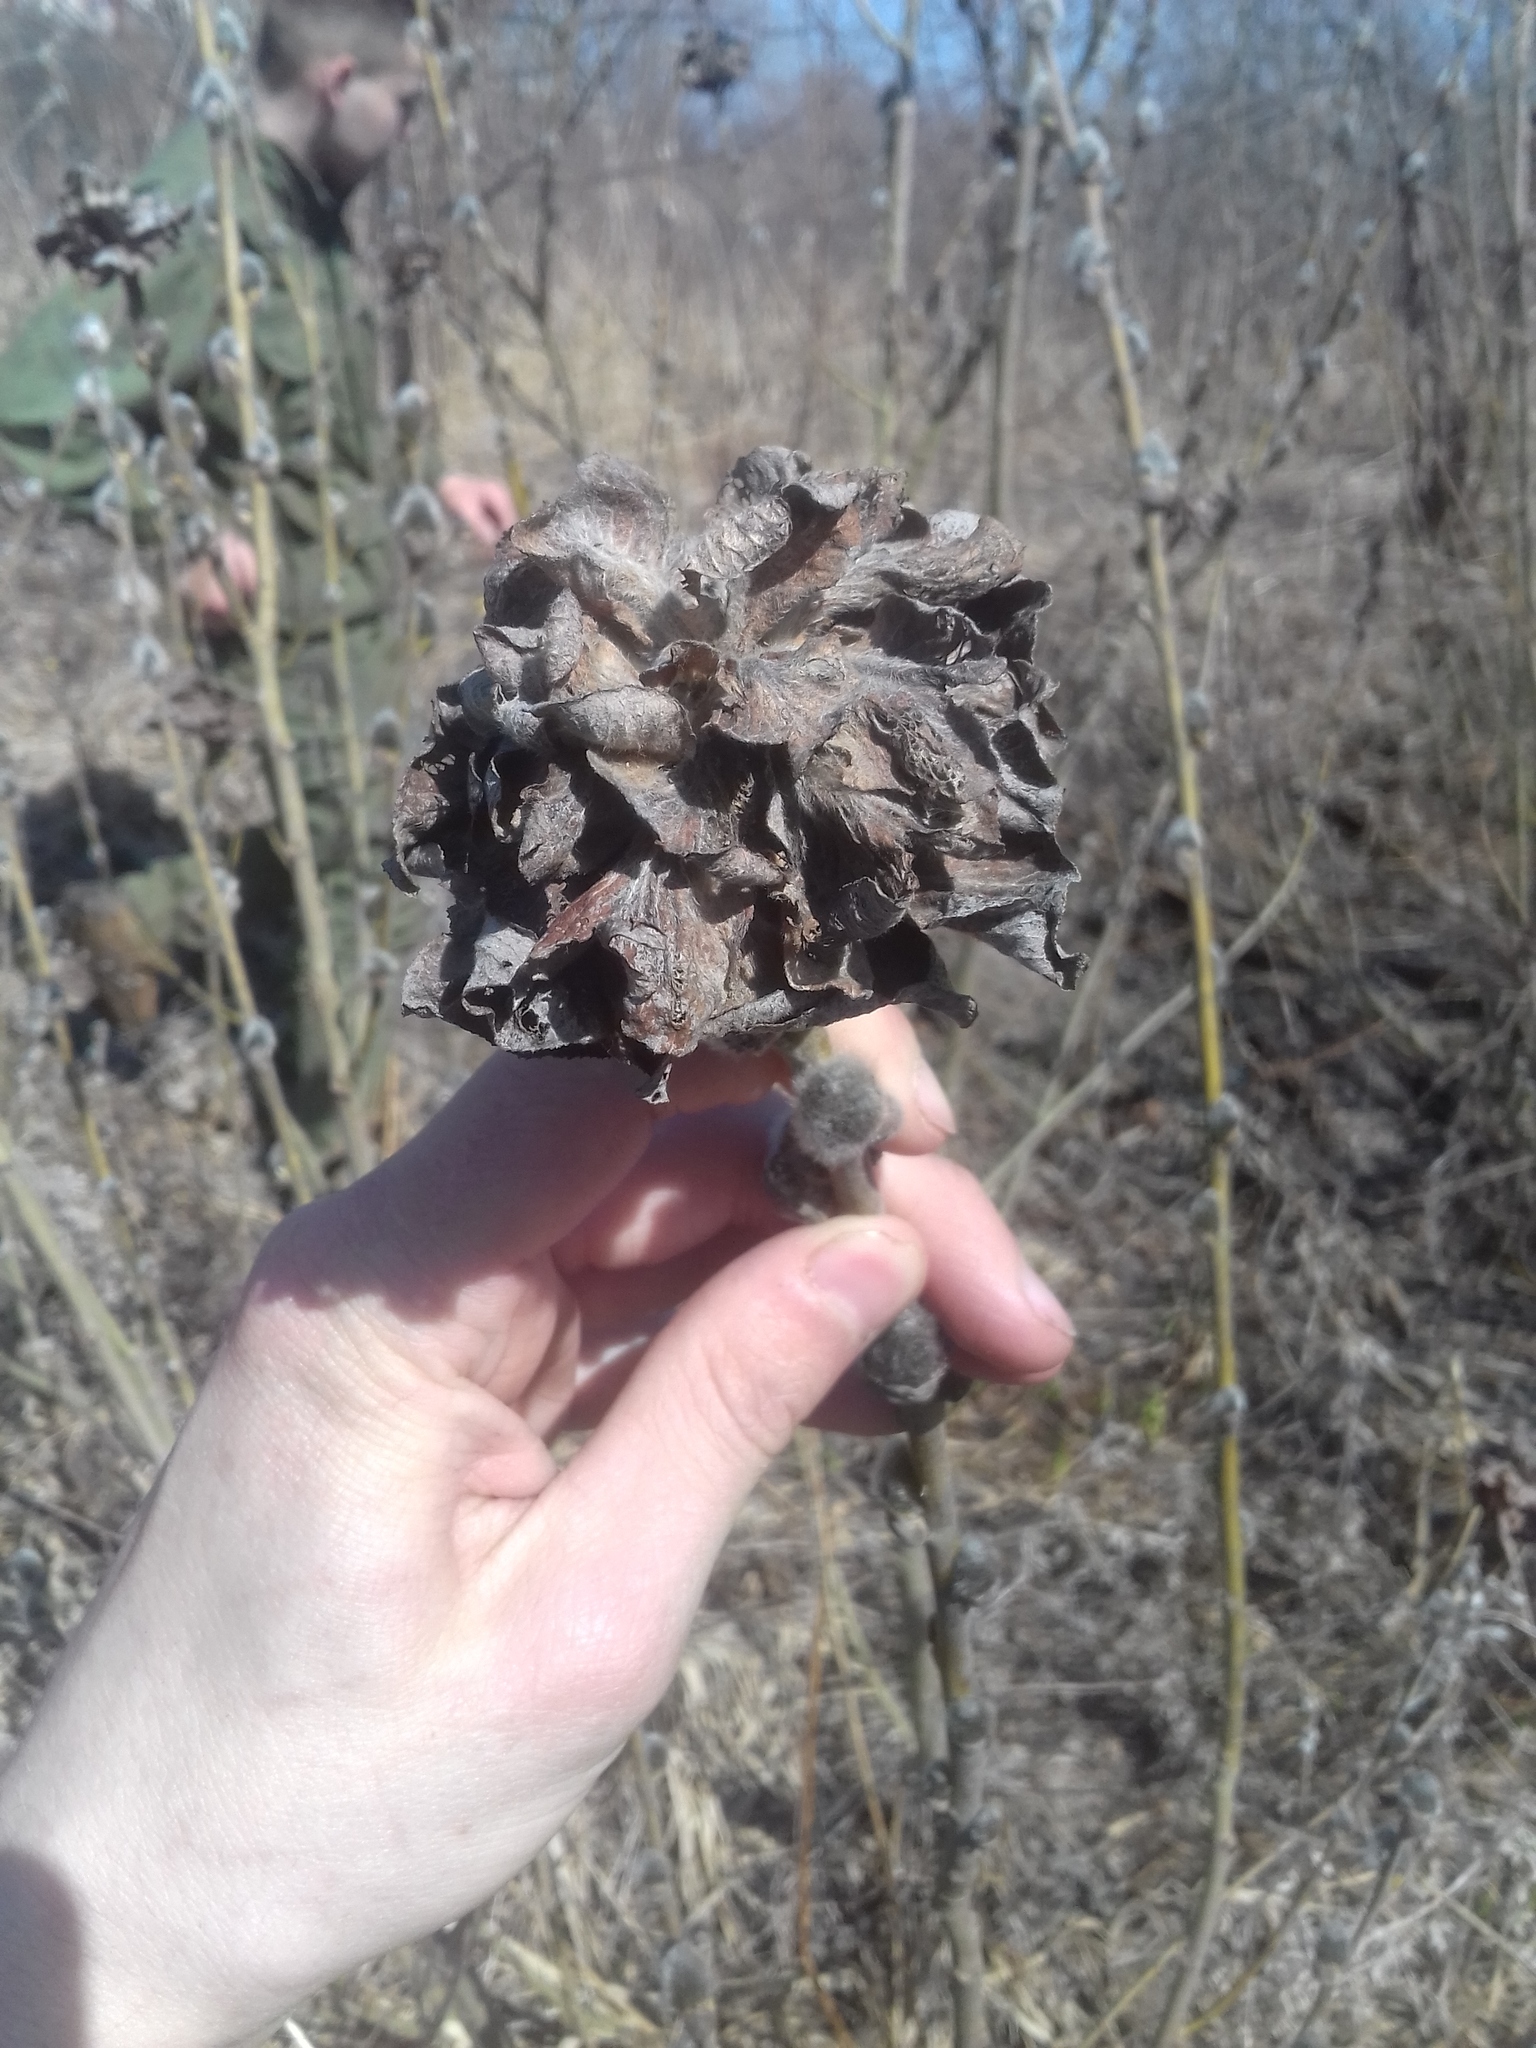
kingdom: Animalia
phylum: Arthropoda
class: Insecta
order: Diptera
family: Cecidomyiidae
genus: Rabdophaga
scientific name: Rabdophaga rosaria
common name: Willow rose gall midge
